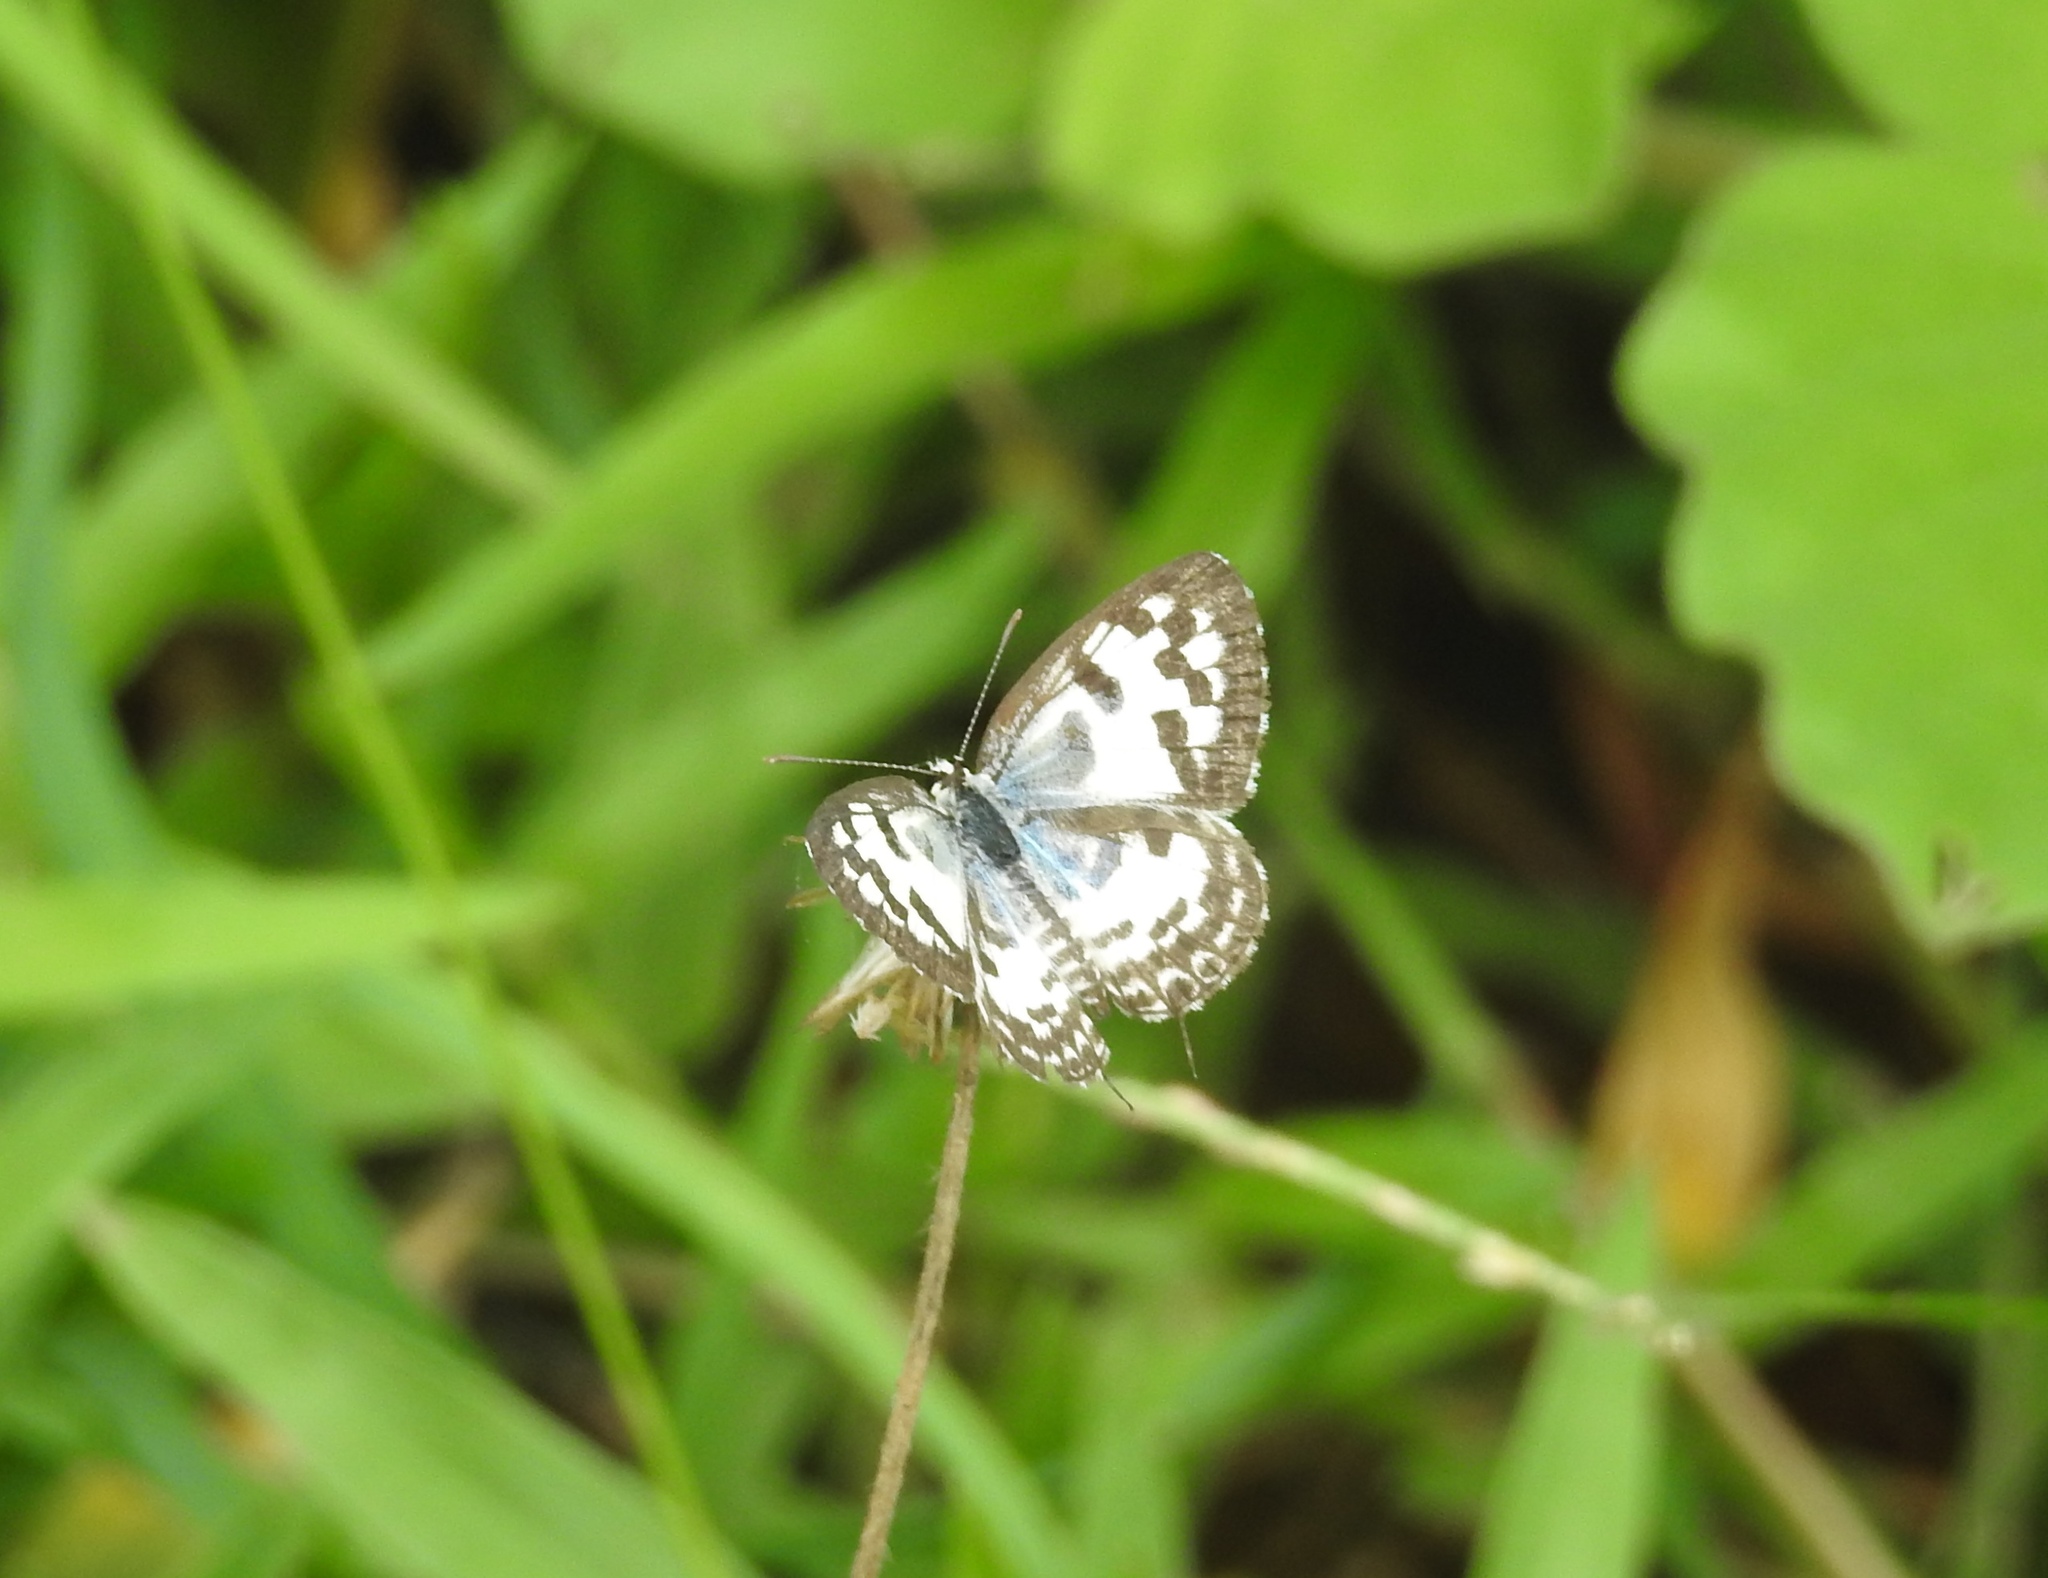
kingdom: Animalia
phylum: Arthropoda
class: Insecta
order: Lepidoptera
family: Lycaenidae
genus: Castalius
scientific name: Castalius rosimon
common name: Common pierrot
